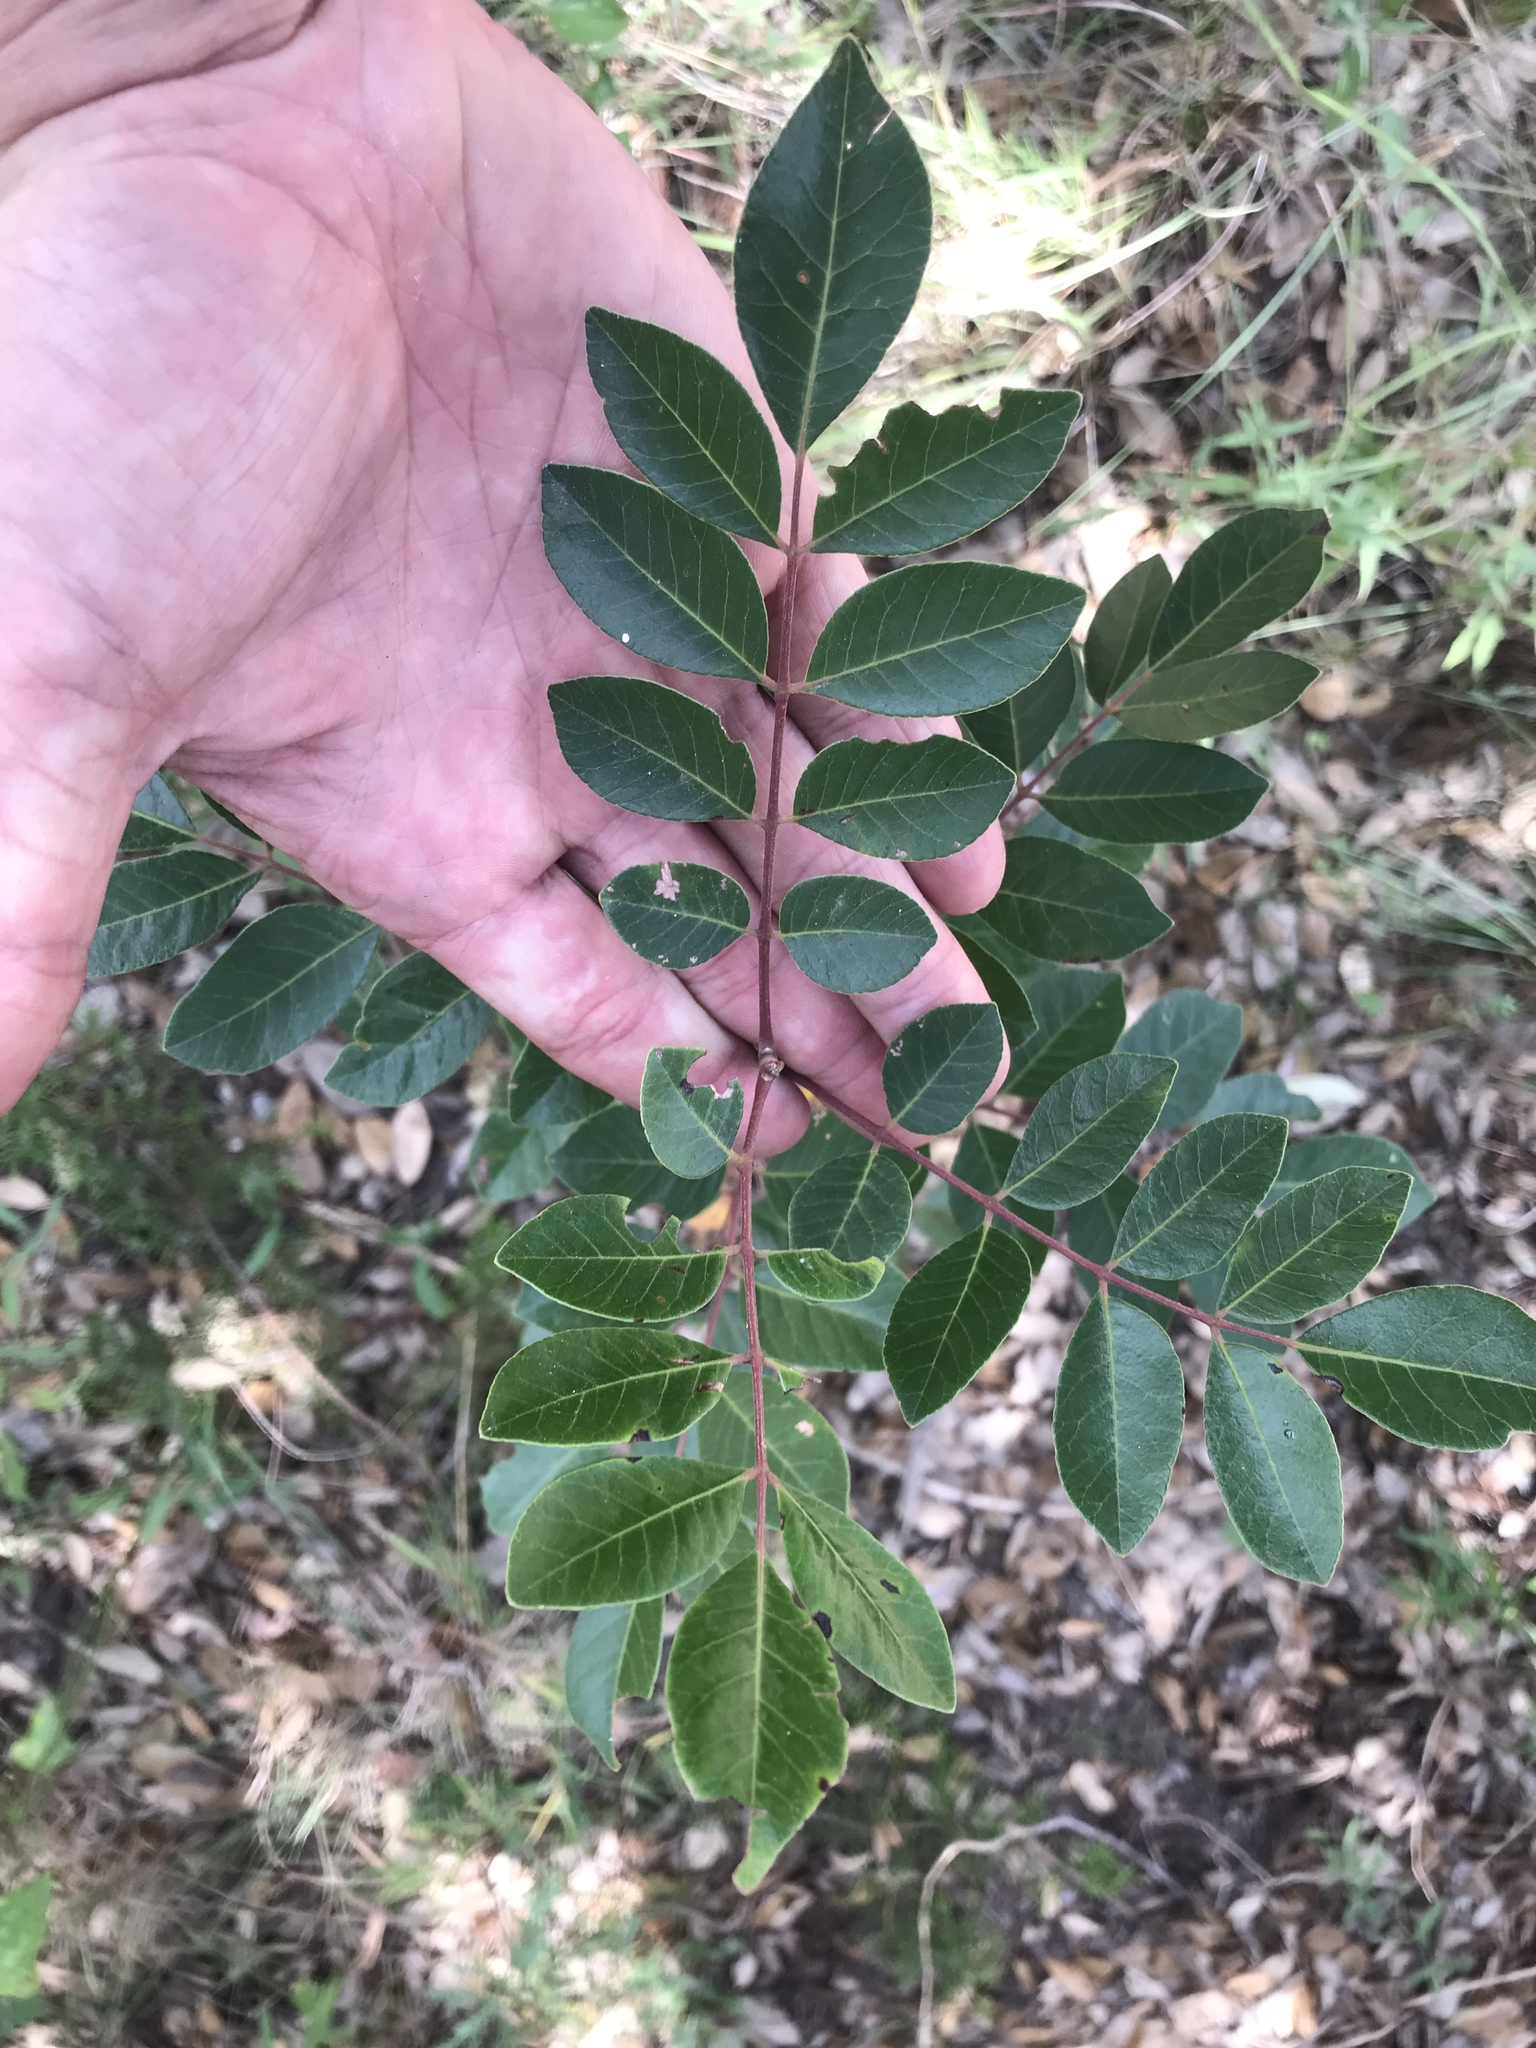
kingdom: Plantae
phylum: Tracheophyta
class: Magnoliopsida
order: Sapindales
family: Anacardiaceae
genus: Rhus
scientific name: Rhus virens
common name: Evergreen sumac
